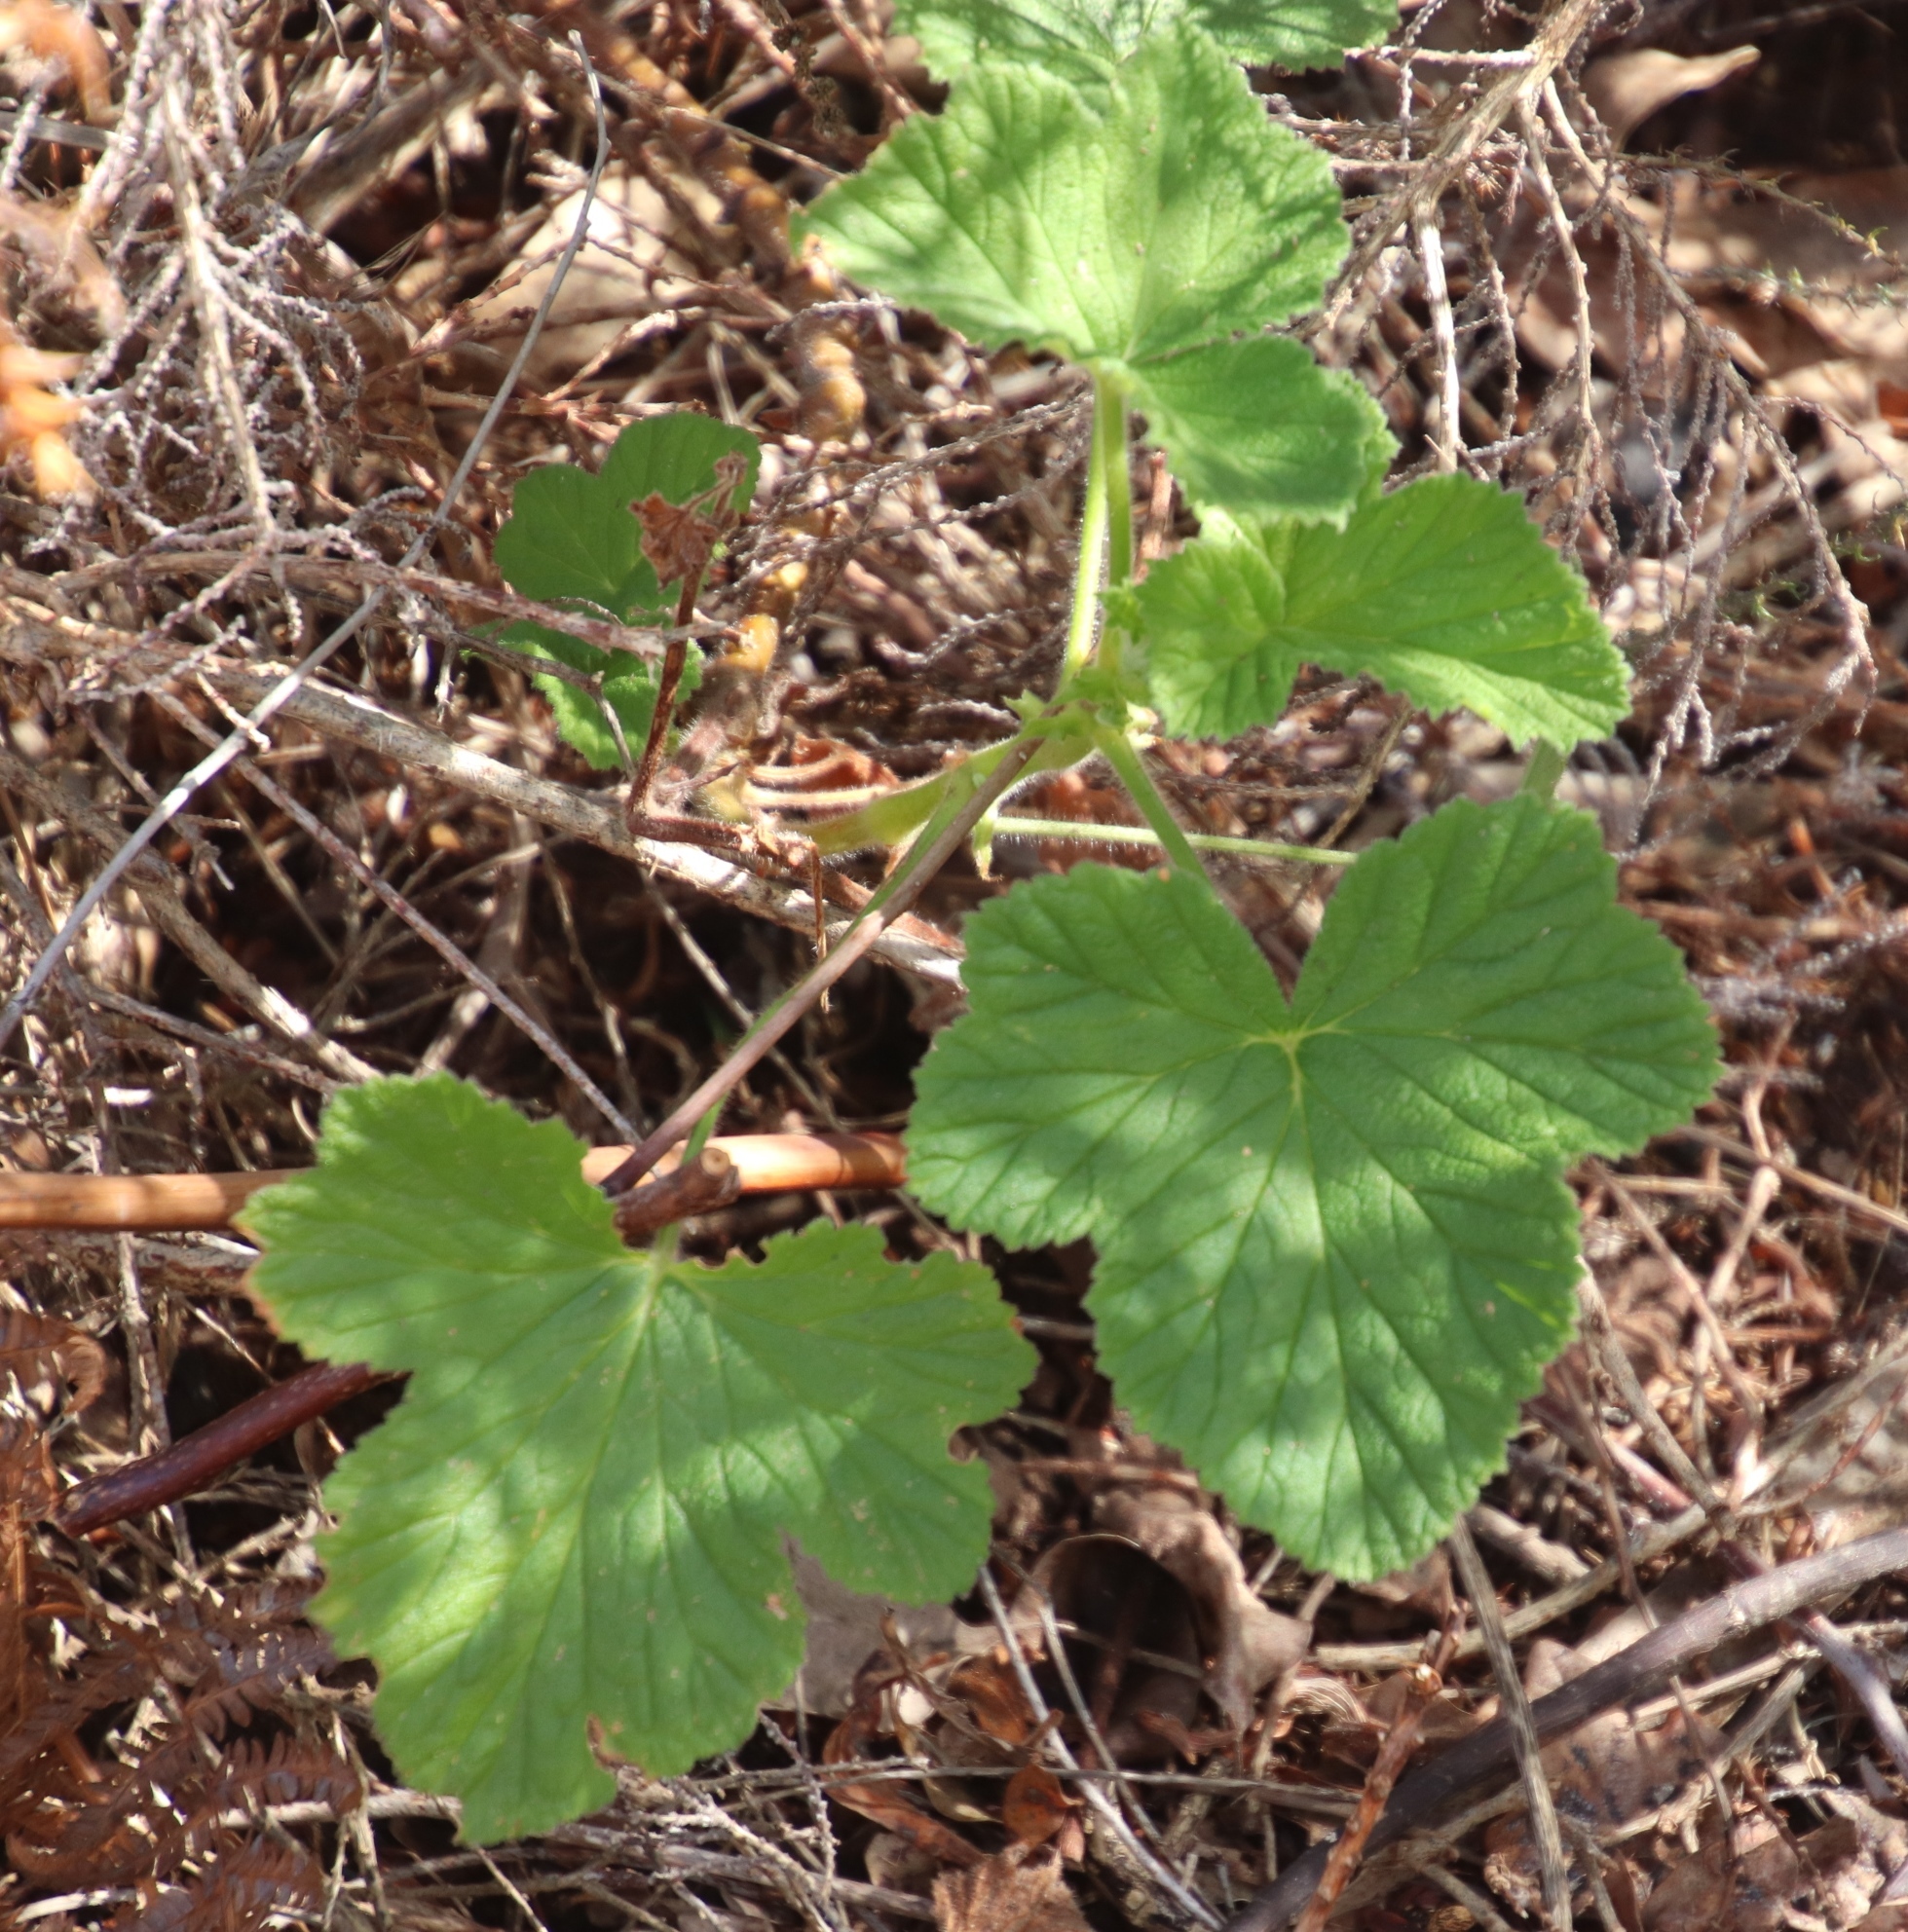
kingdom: Plantae
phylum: Tracheophyta
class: Magnoliopsida
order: Geraniales
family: Geraniaceae
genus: Pelargonium
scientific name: Pelargonium vitifolium
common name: Grapeleaf geranium
